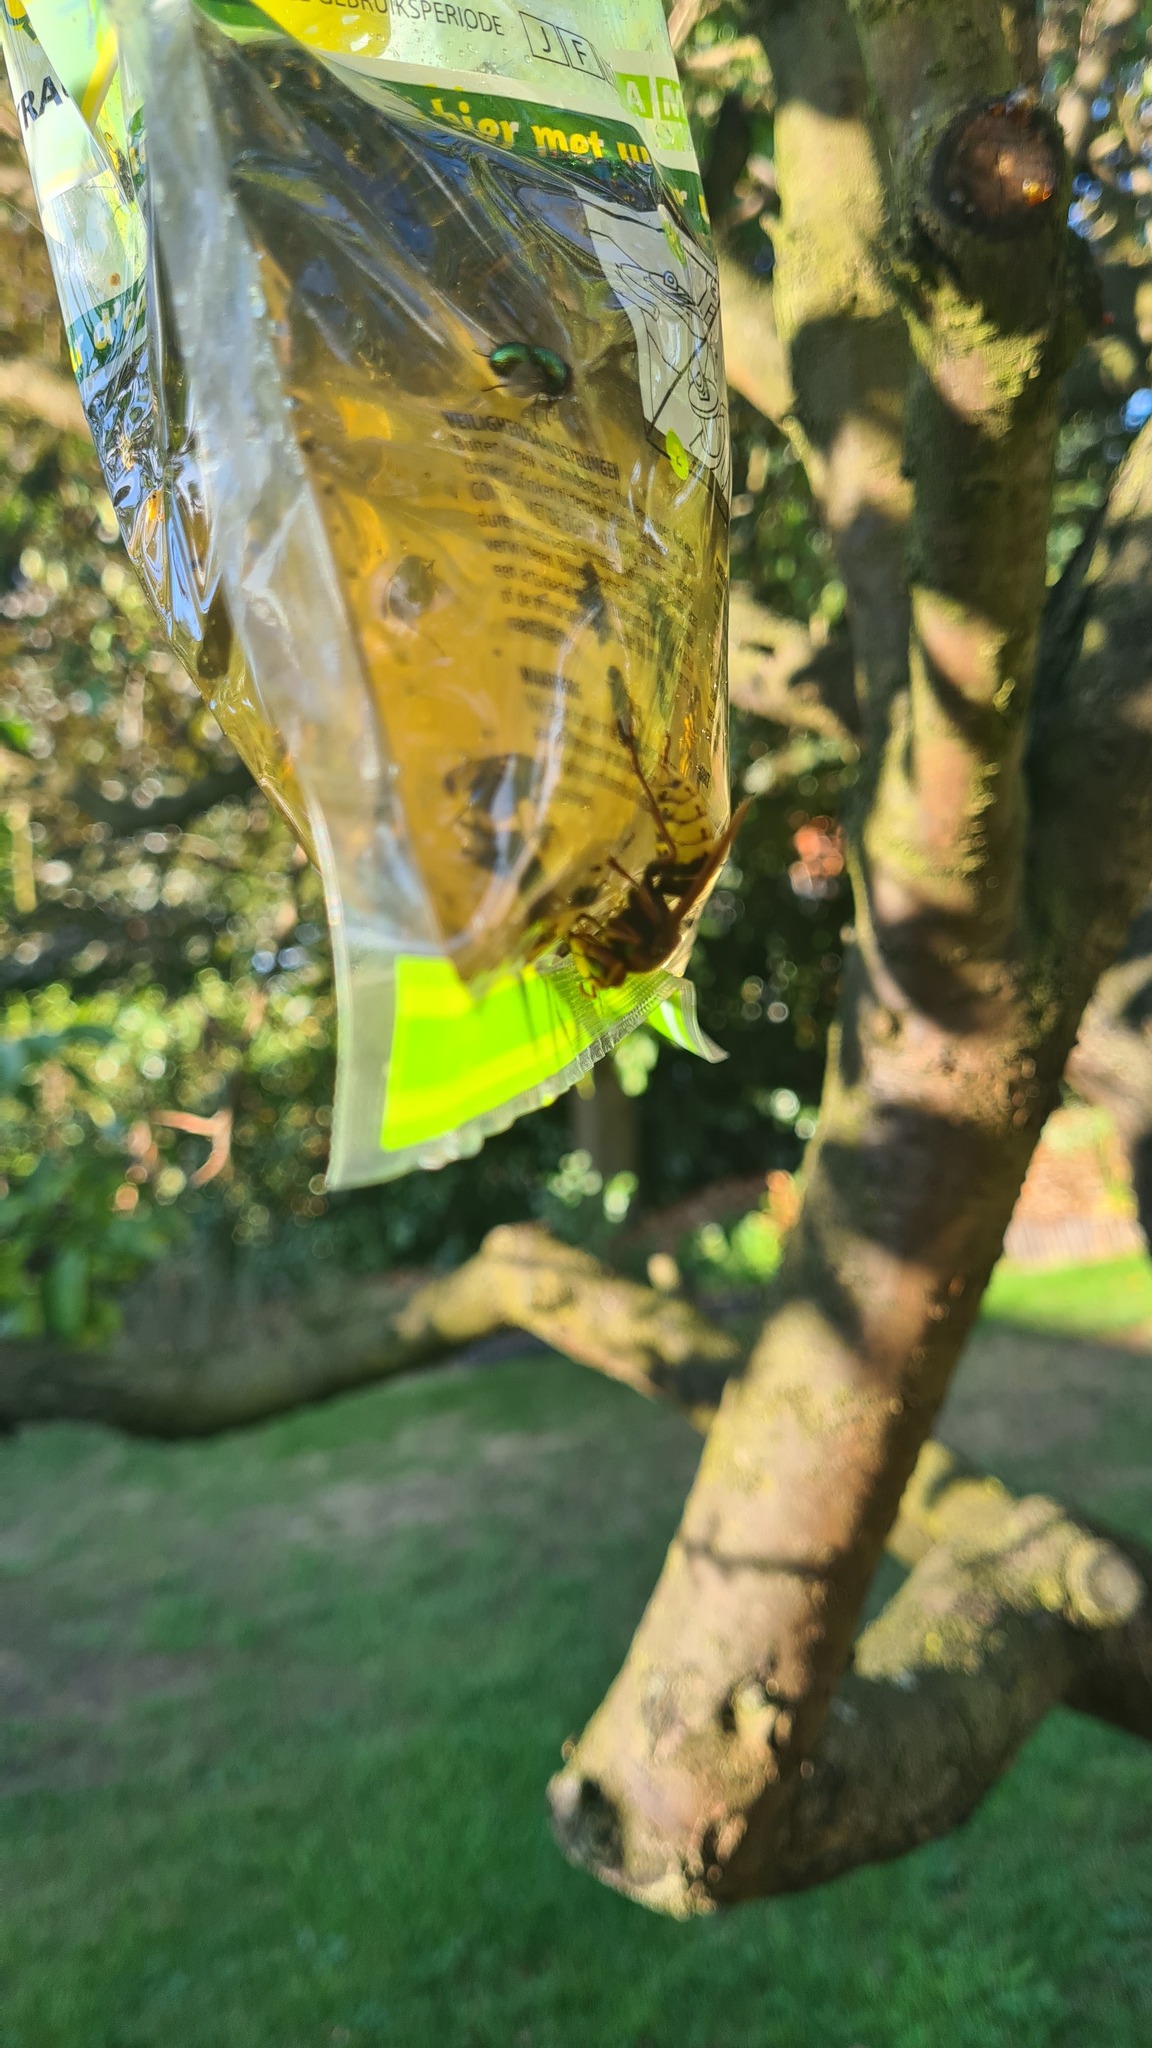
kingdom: Animalia
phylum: Arthropoda
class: Insecta
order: Hymenoptera
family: Vespidae
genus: Vespa
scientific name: Vespa crabro
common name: Hornet
